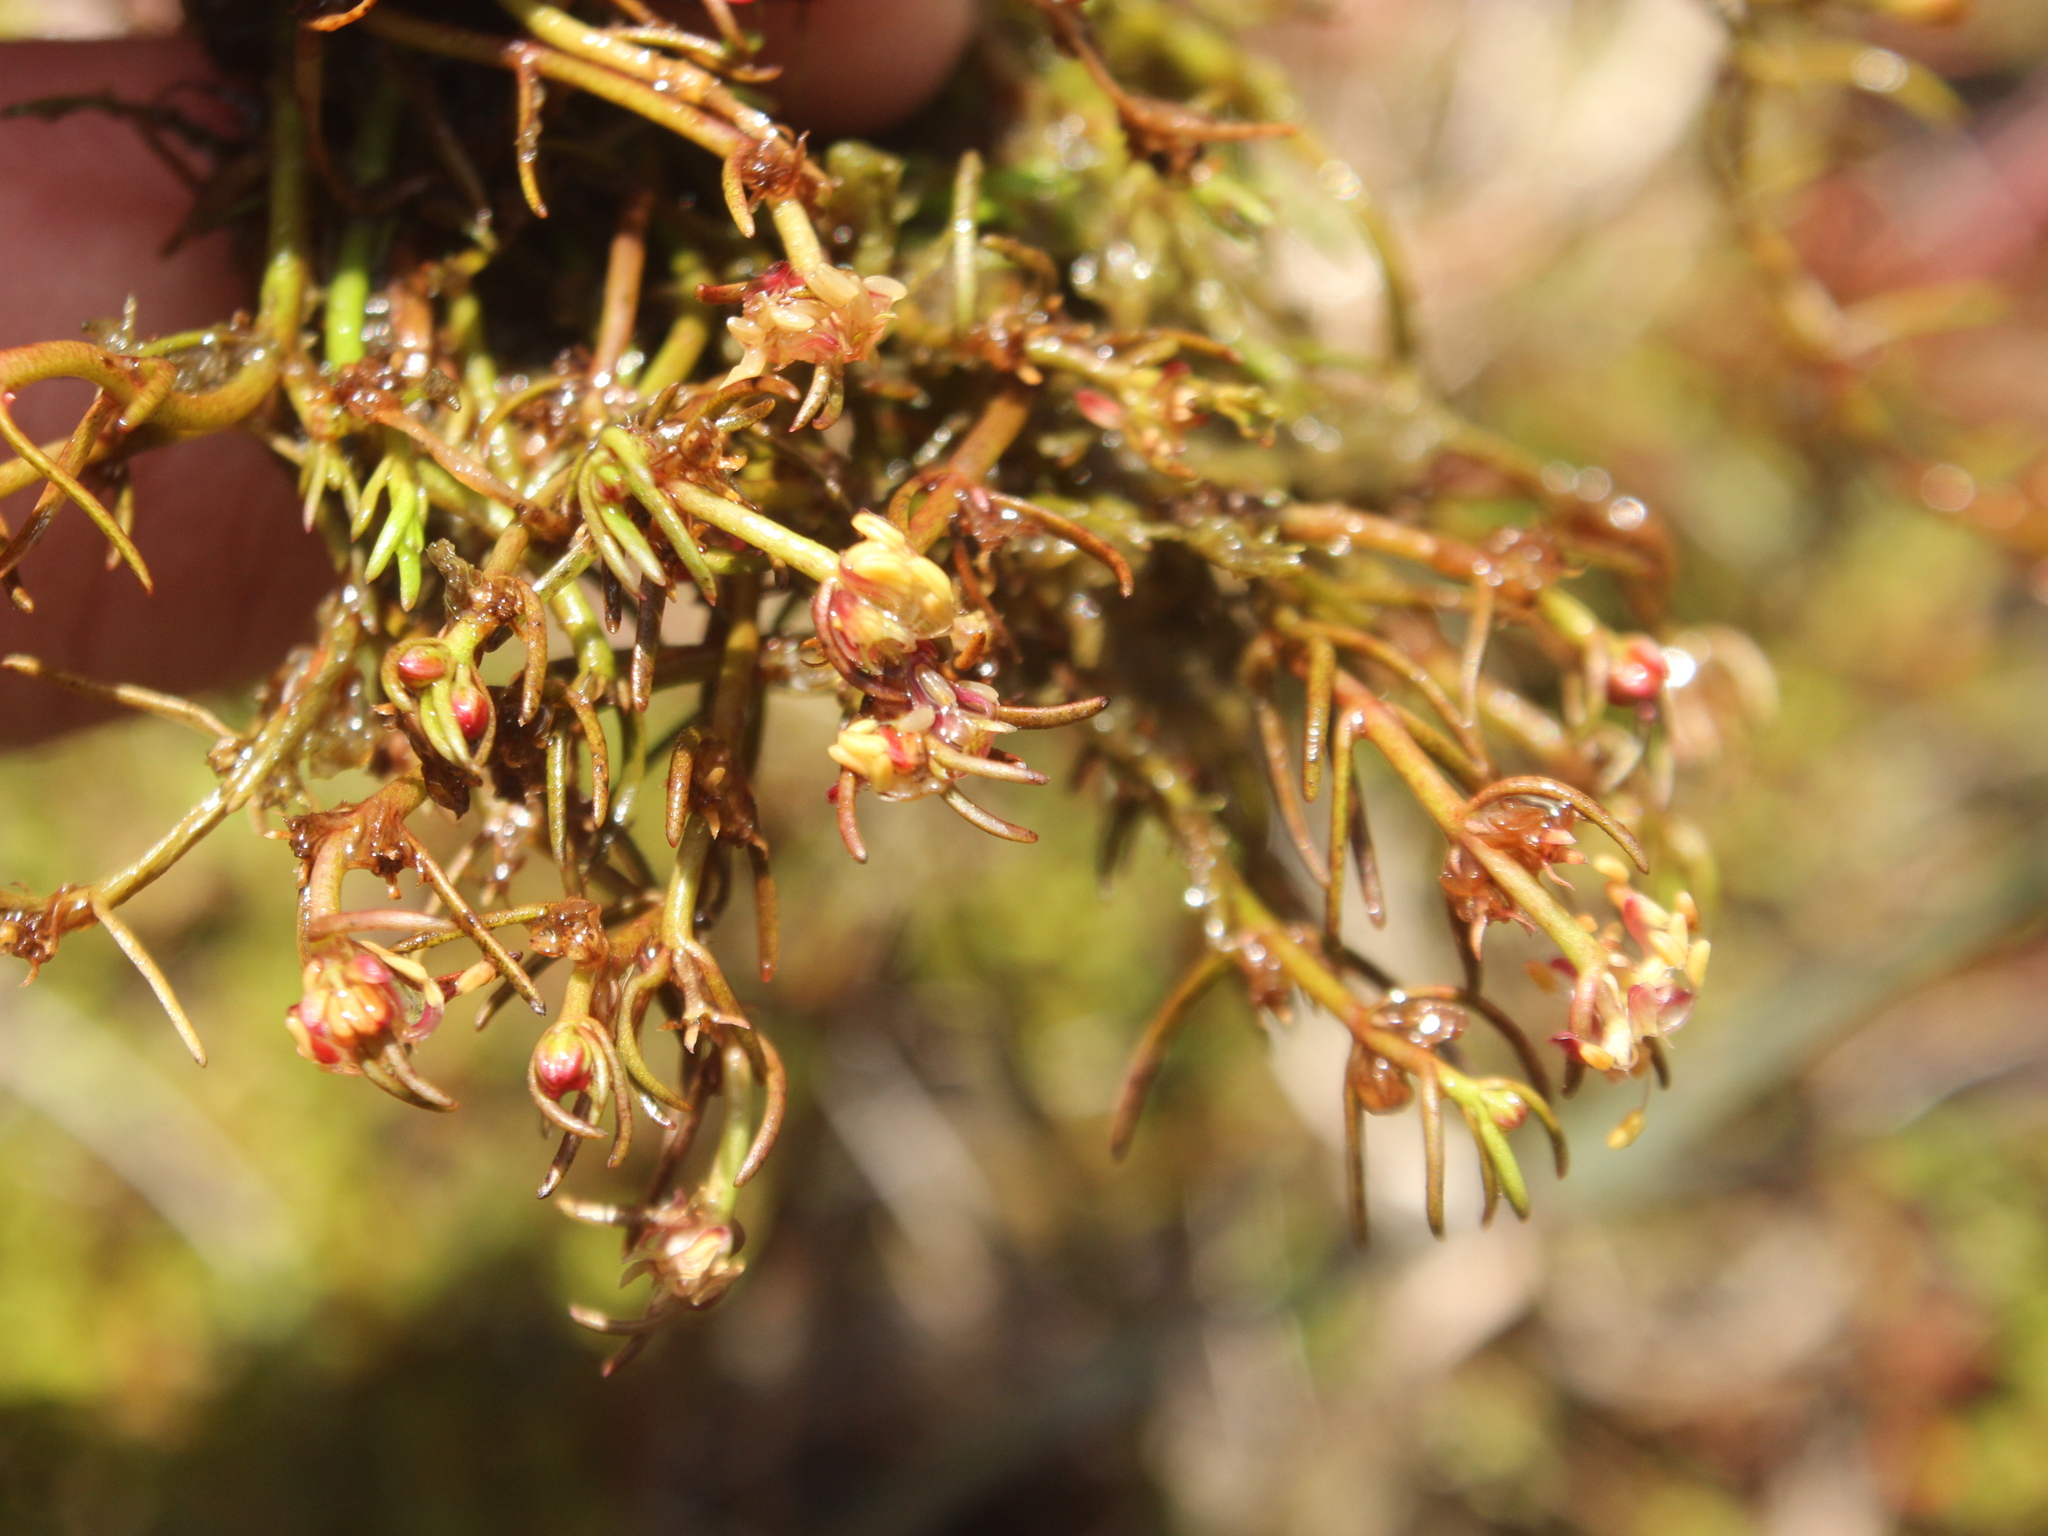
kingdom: Plantae
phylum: Tracheophyta
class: Magnoliopsida
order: Saxifragales
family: Haloragaceae
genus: Myriophyllum
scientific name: Myriophyllum pedunculatum
